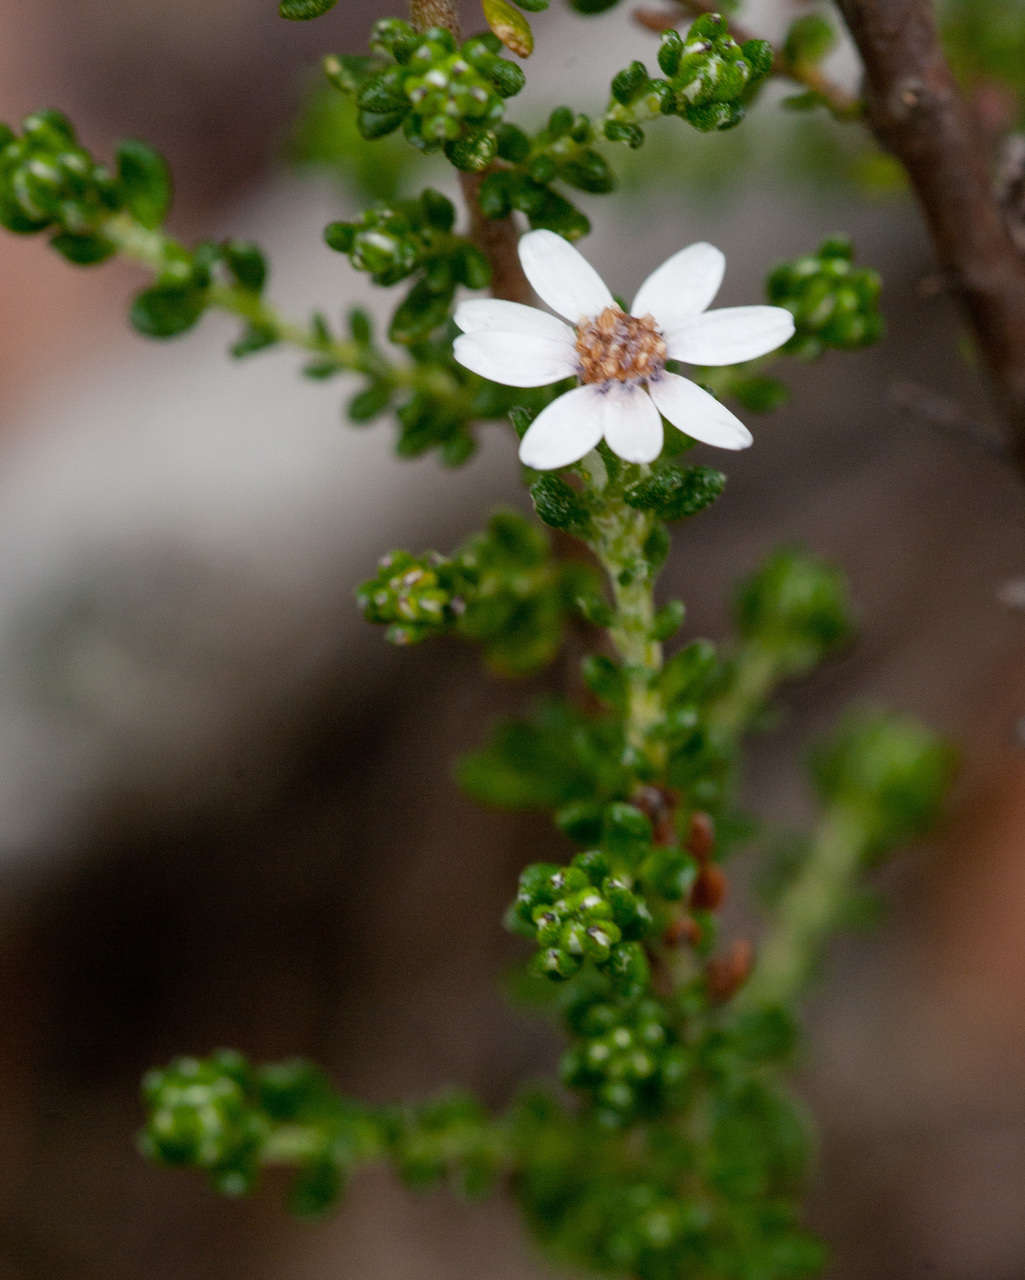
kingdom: Plantae
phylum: Tracheophyta
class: Magnoliopsida
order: Asterales
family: Asteraceae
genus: Olearia
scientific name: Olearia minor
